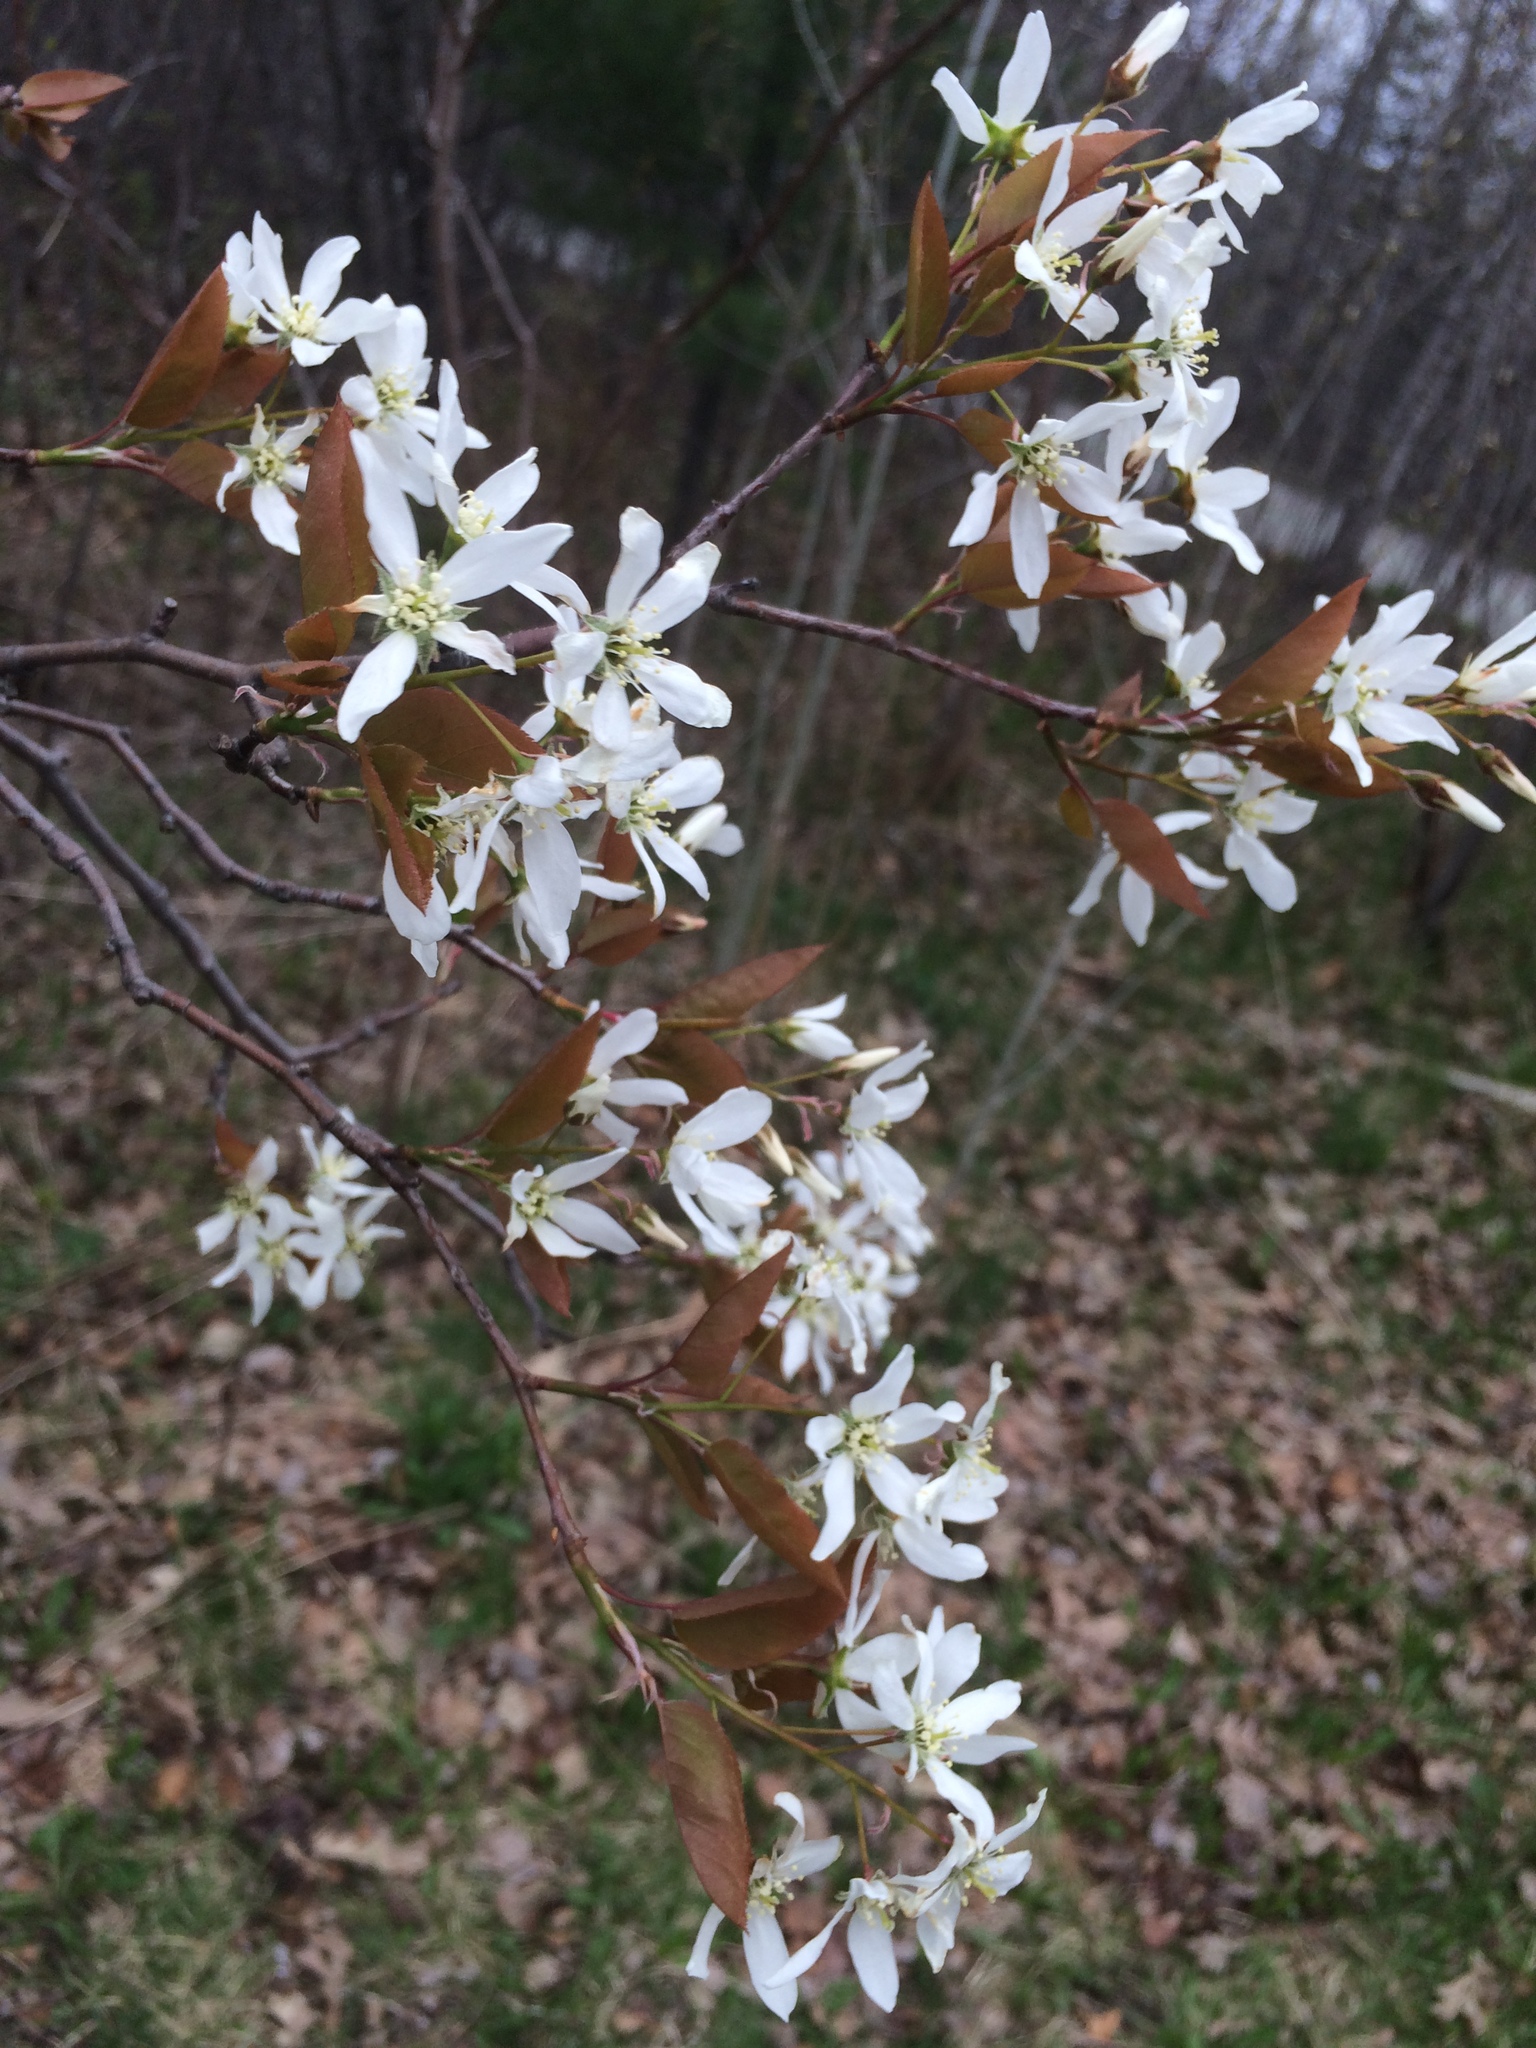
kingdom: Plantae
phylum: Tracheophyta
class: Magnoliopsida
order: Rosales
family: Rosaceae
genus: Amelanchier
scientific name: Amelanchier laevis
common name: Allegheny serviceberry
